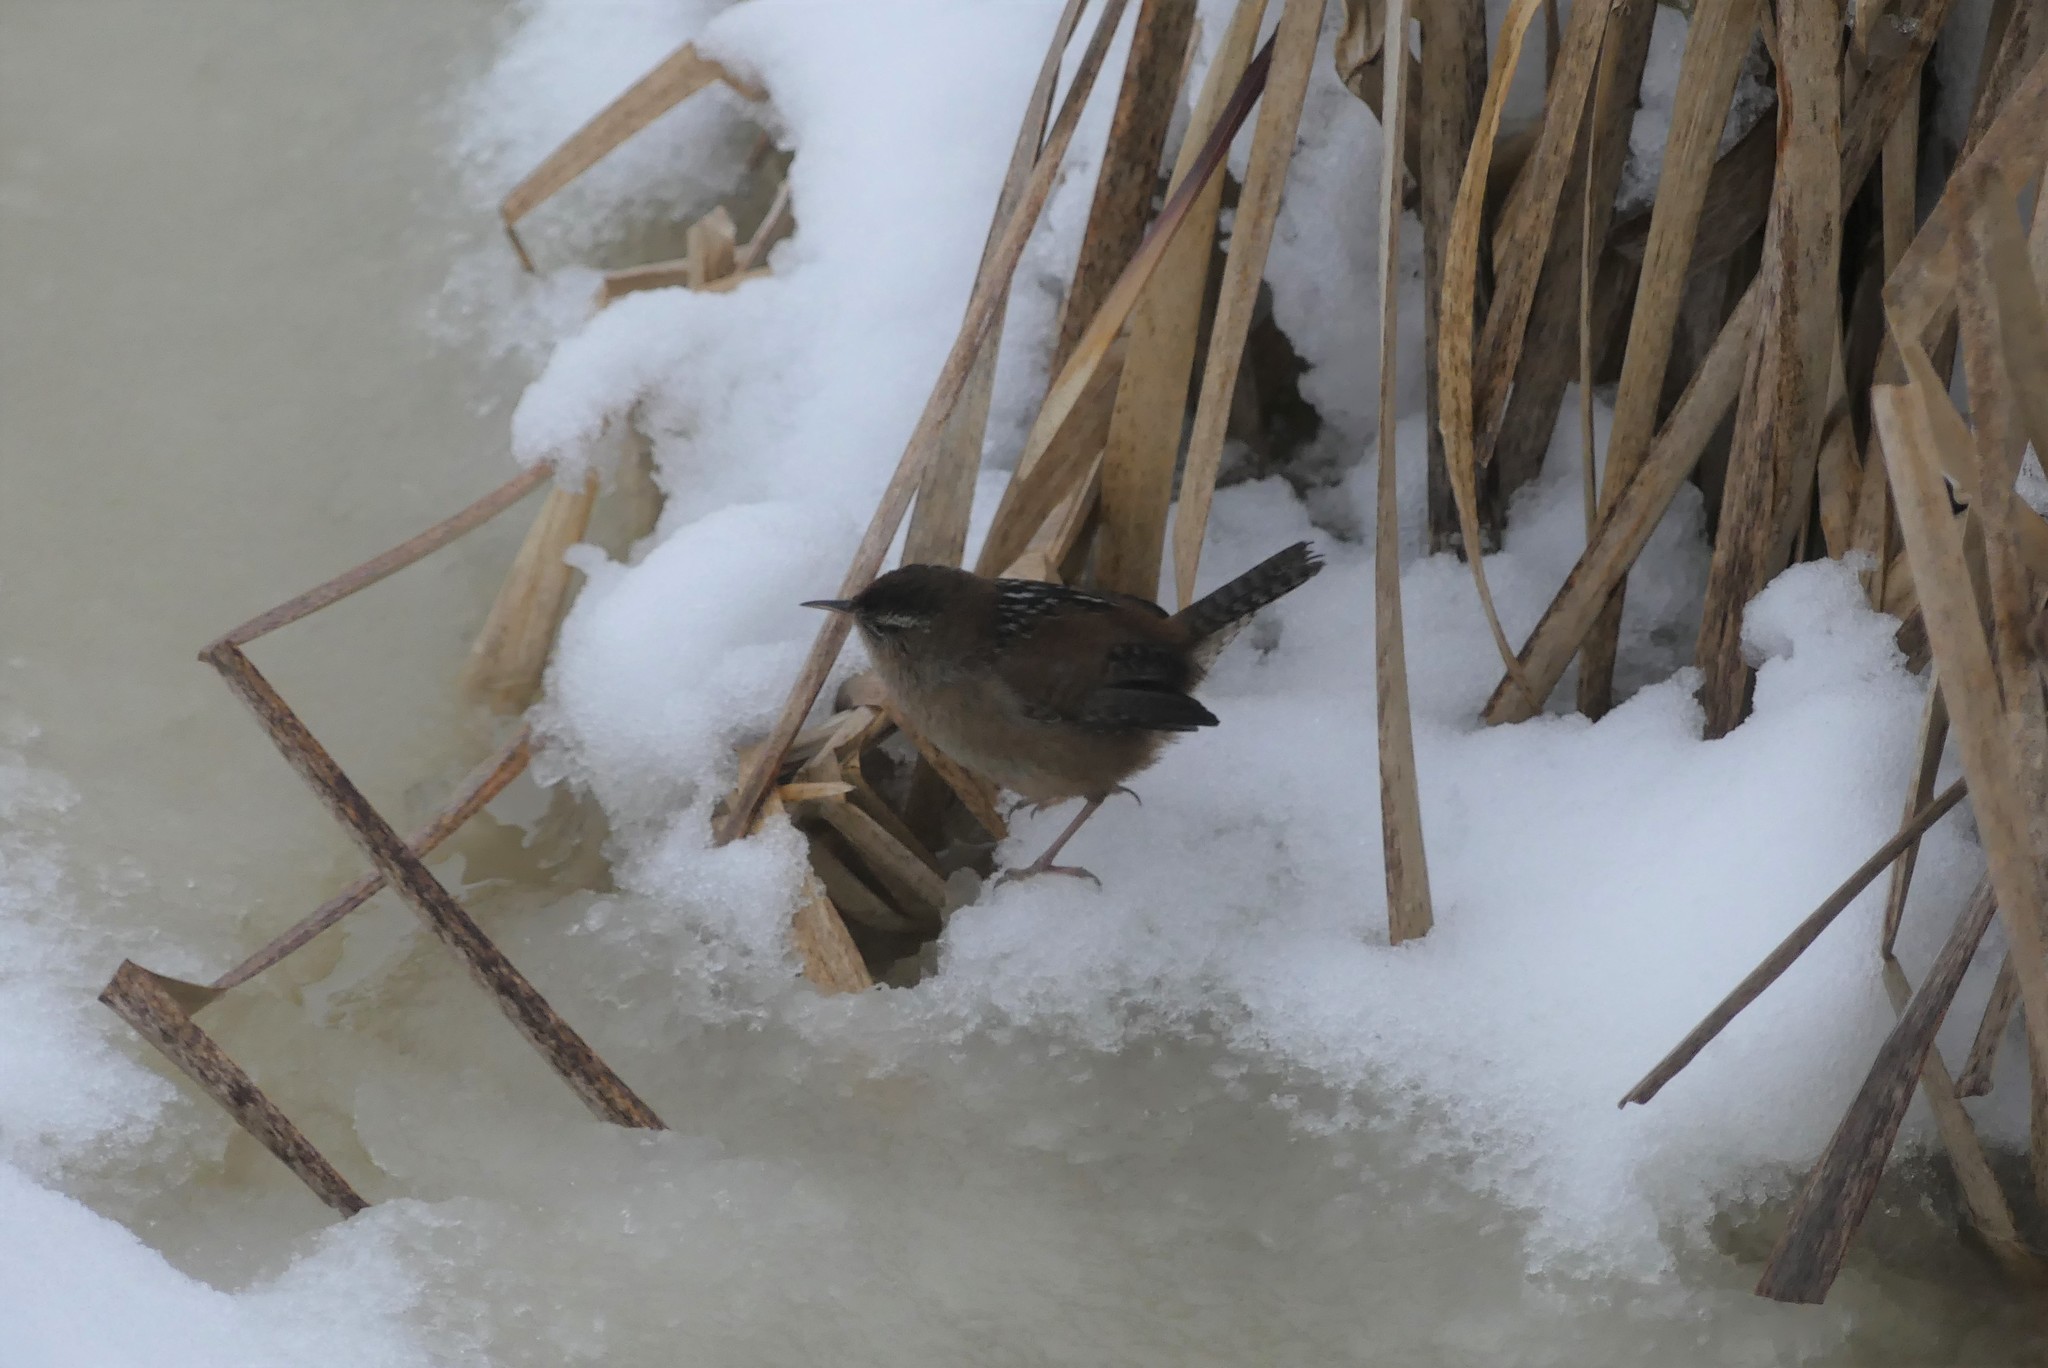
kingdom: Animalia
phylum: Chordata
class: Aves
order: Passeriformes
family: Troglodytidae
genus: Cistothorus
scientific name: Cistothorus palustris
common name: Marsh wren
